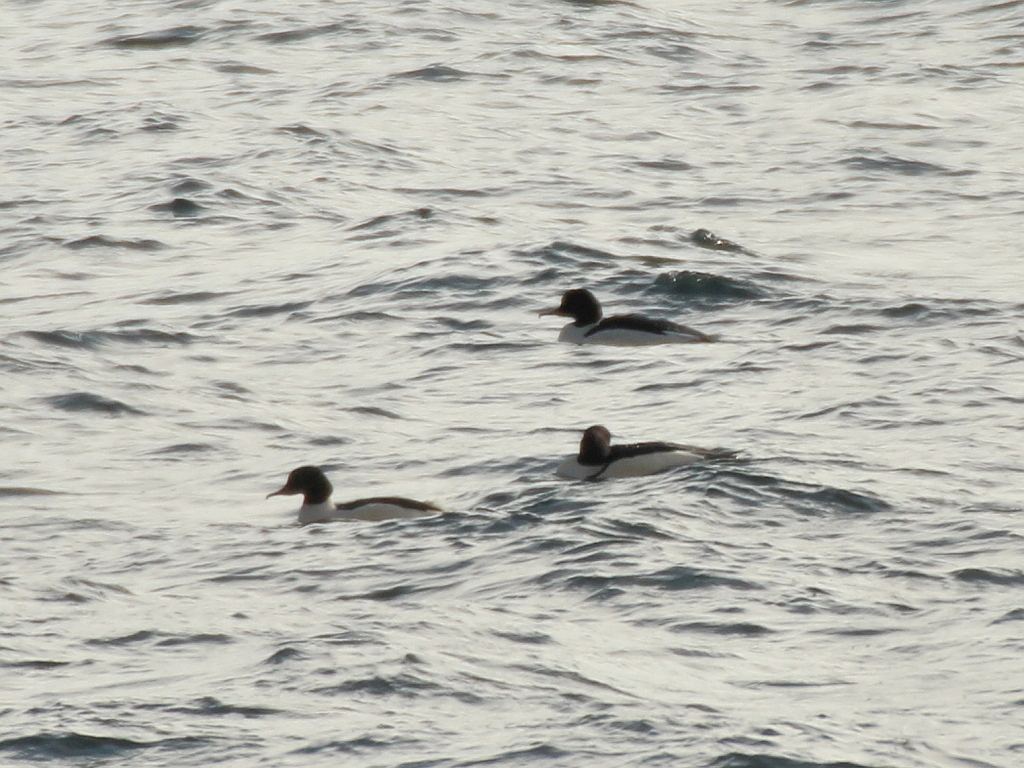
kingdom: Animalia
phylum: Chordata
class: Aves
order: Anseriformes
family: Anatidae
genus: Mergus
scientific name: Mergus merganser
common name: Common merganser
